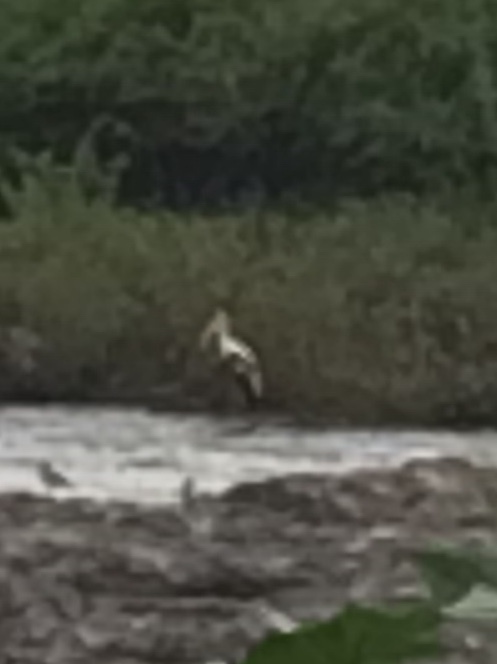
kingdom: Animalia
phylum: Chordata
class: Aves
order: Ciconiiformes
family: Ciconiidae
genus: Mycteria
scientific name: Mycteria leucocephala
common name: Painted stork
